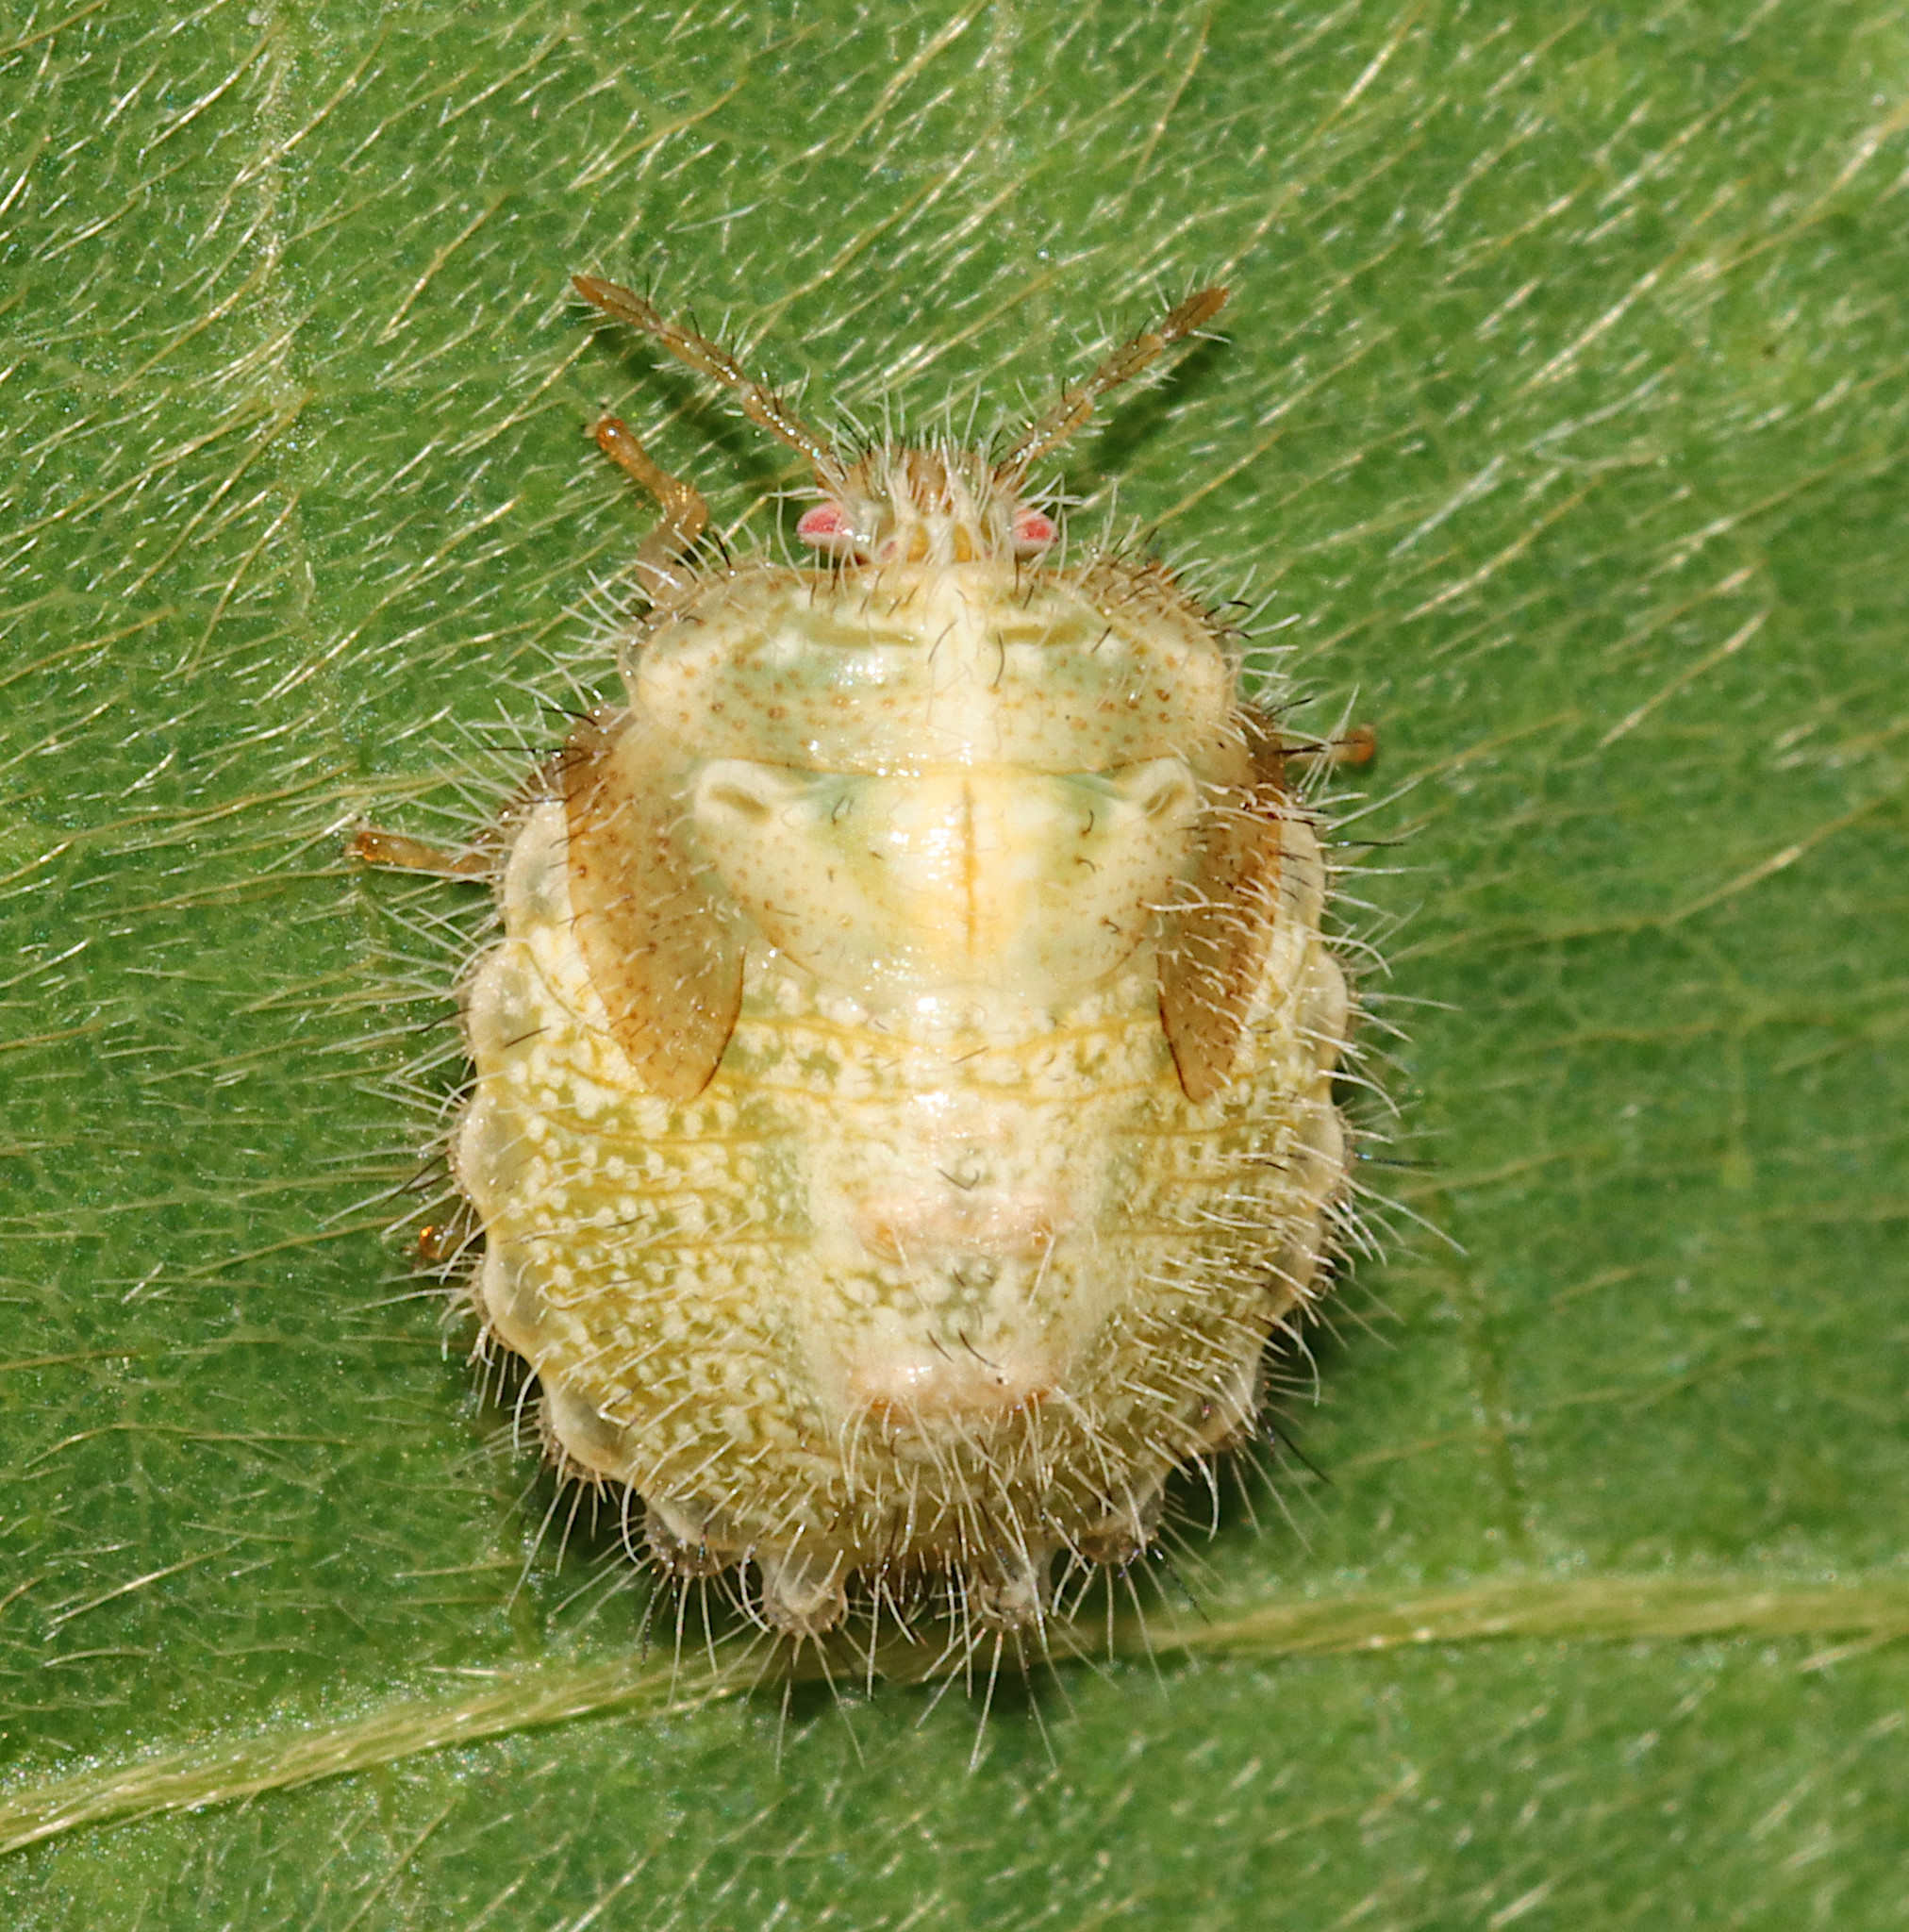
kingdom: Animalia
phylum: Arthropoda
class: Insecta
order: Hemiptera
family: Plataspidae
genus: Megacopta
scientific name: Megacopta cribraria
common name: Bean plataspid
